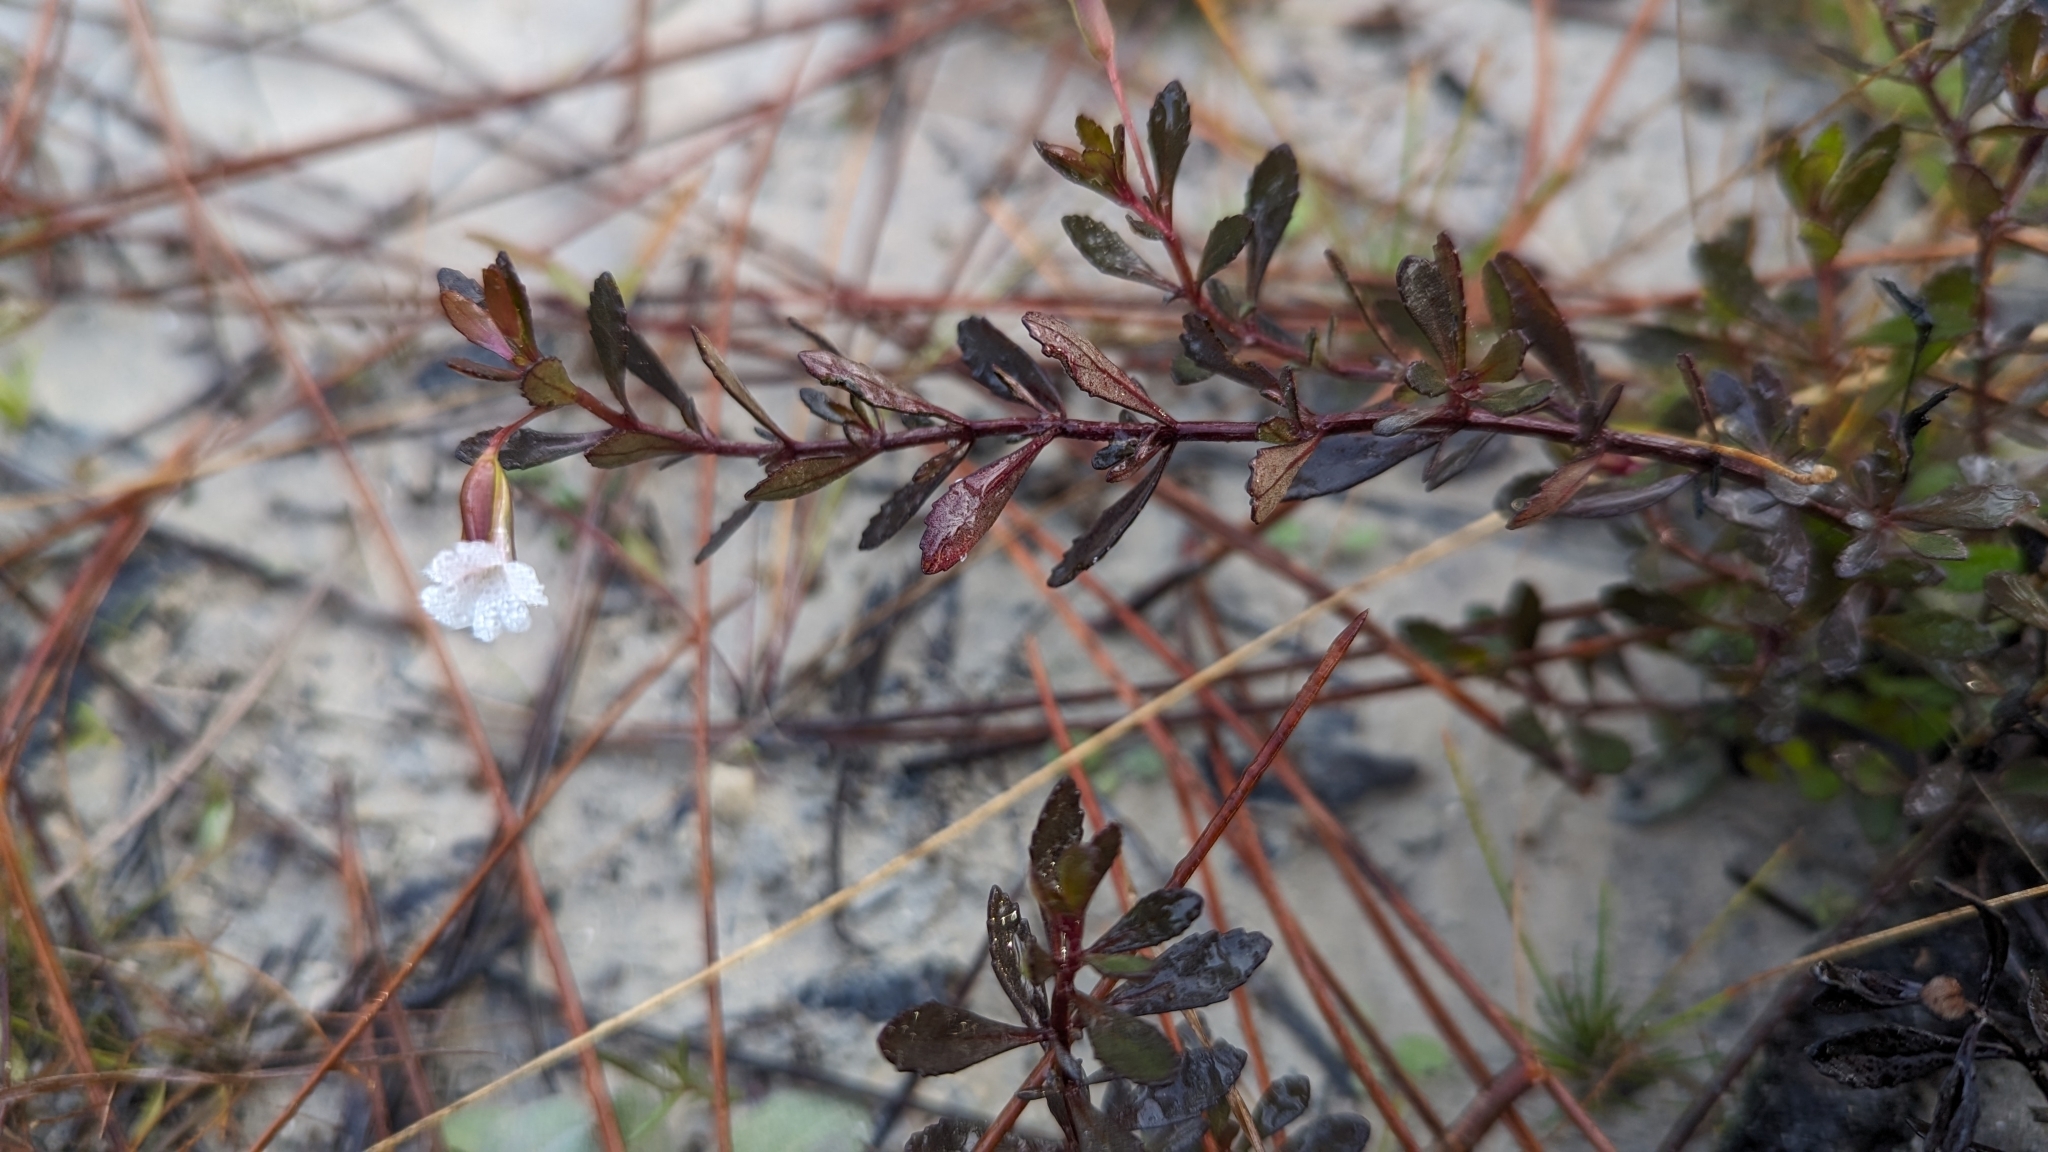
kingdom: Plantae
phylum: Tracheophyta
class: Magnoliopsida
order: Lamiales
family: Plantaginaceae
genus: Mecardonia
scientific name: Mecardonia acuminata
